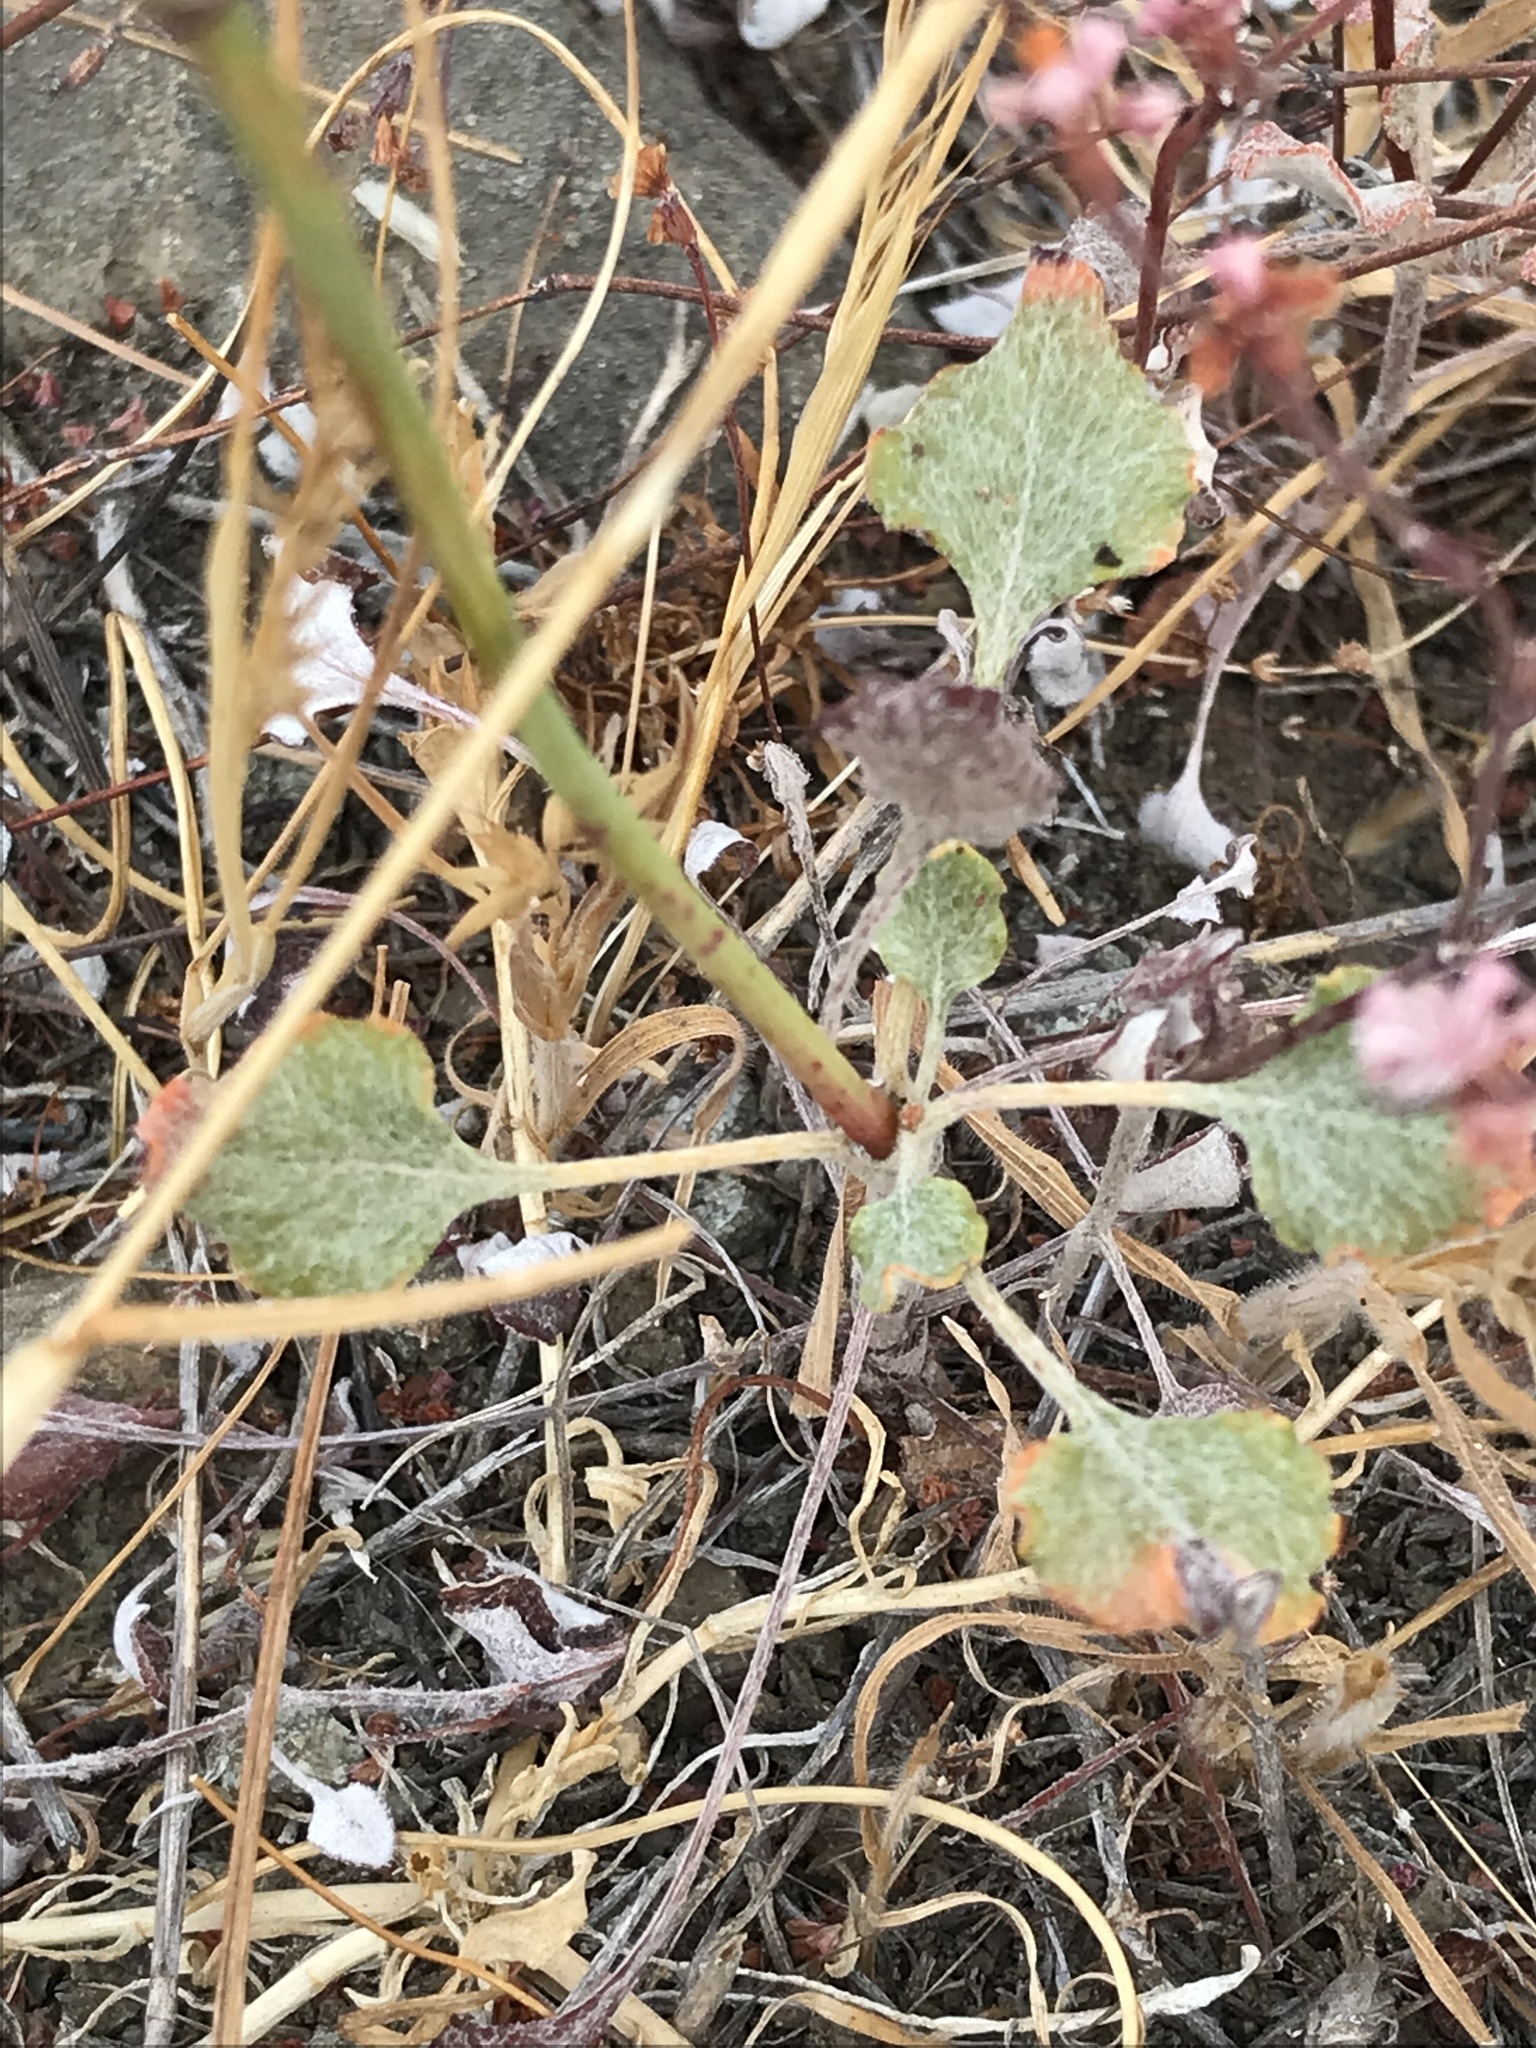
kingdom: Plantae
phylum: Tracheophyta
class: Magnoliopsida
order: Caryophyllales
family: Polygonaceae
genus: Eriogonum
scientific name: Eriogonum luteolum
